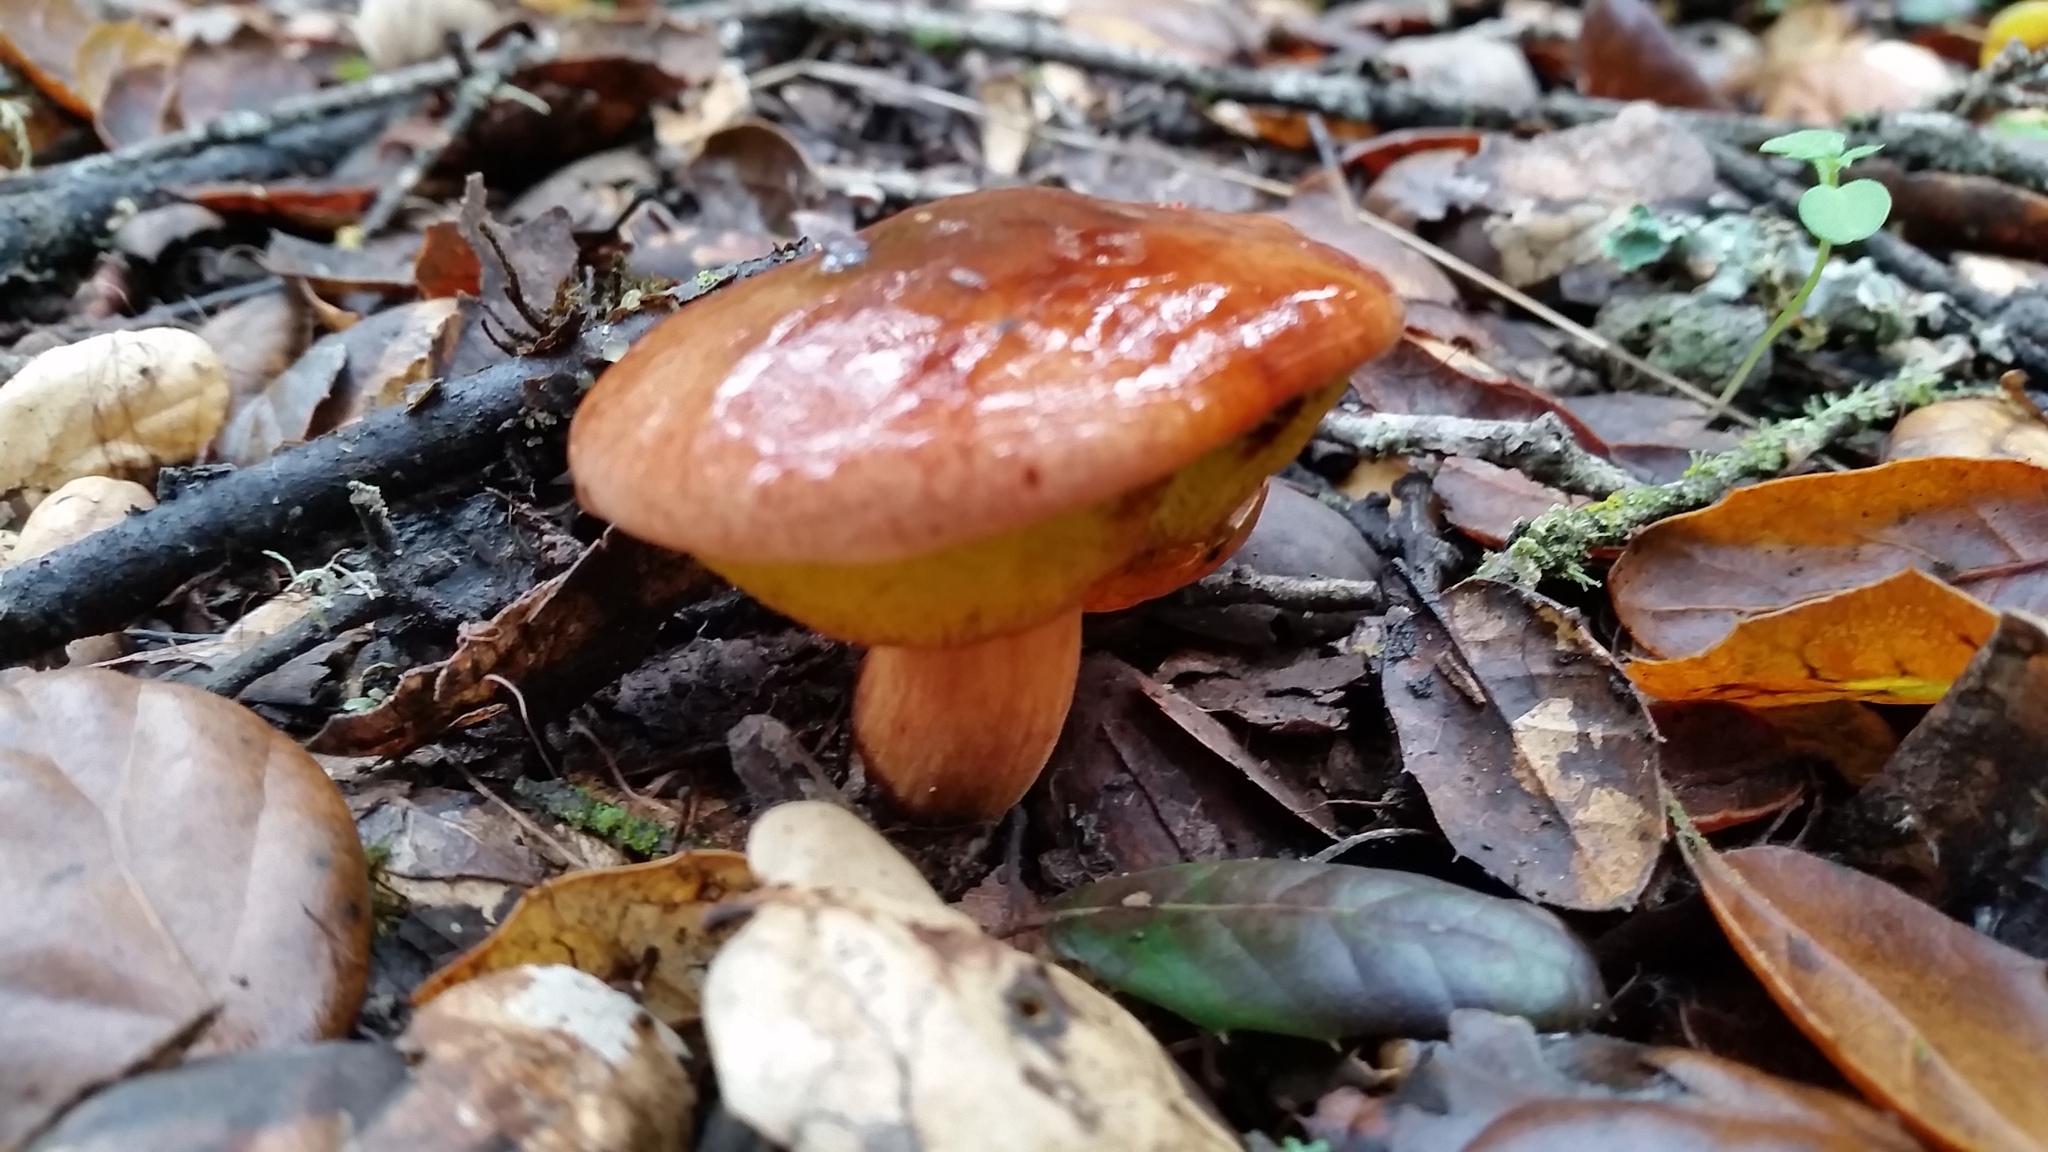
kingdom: Fungi
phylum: Basidiomycota
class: Agaricomycetes
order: Boletales
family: Suillaceae
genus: Suillus
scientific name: Suillus pungens
